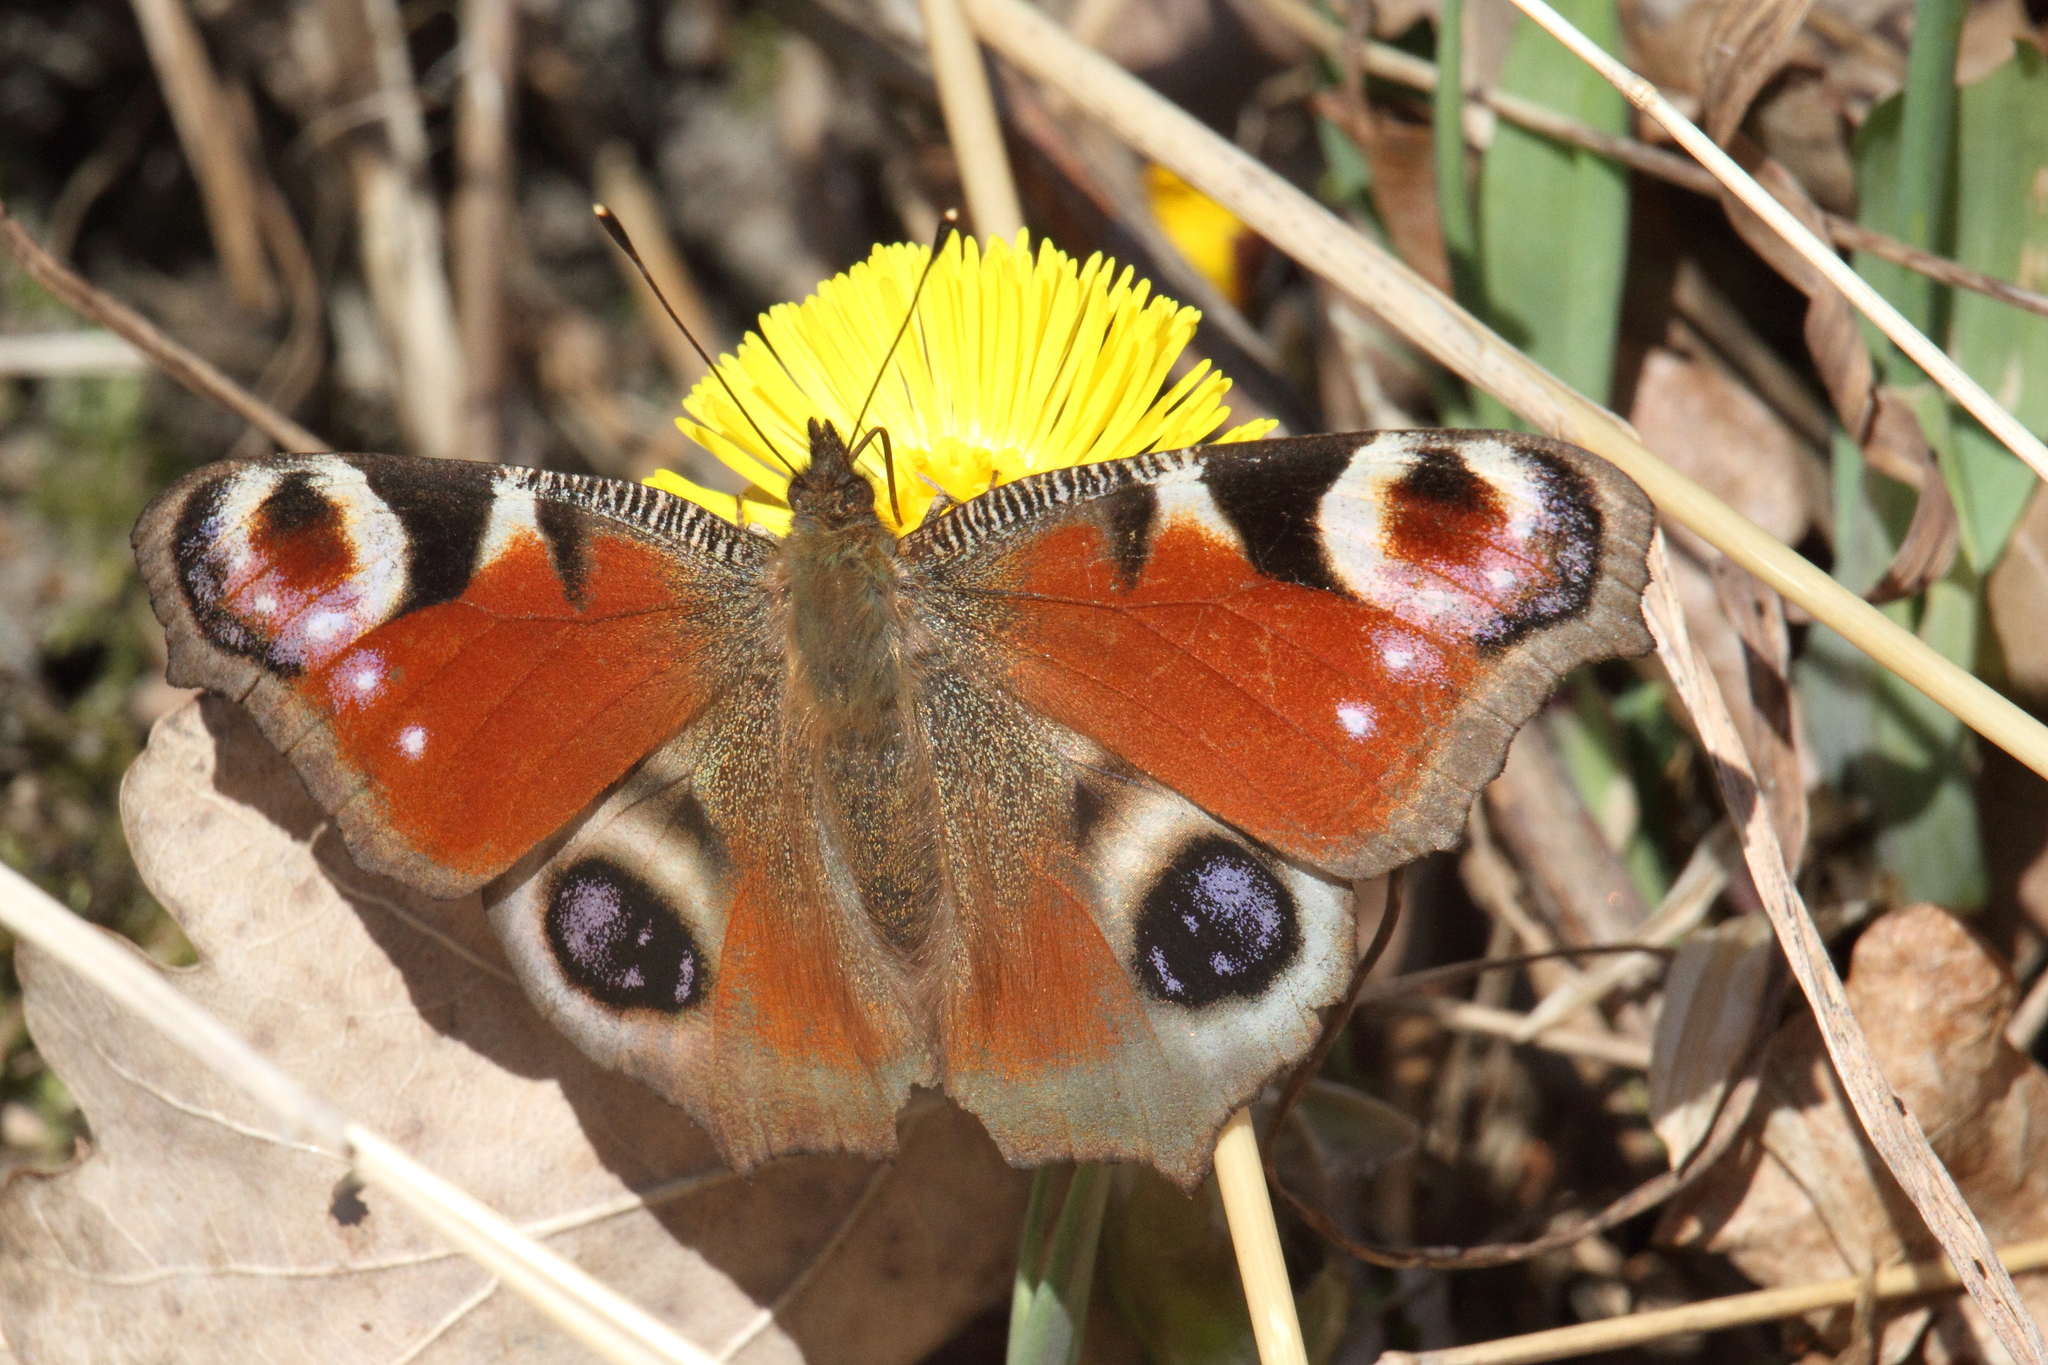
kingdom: Animalia
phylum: Arthropoda
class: Insecta
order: Lepidoptera
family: Nymphalidae
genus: Aglais
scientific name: Aglais io
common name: Peacock
